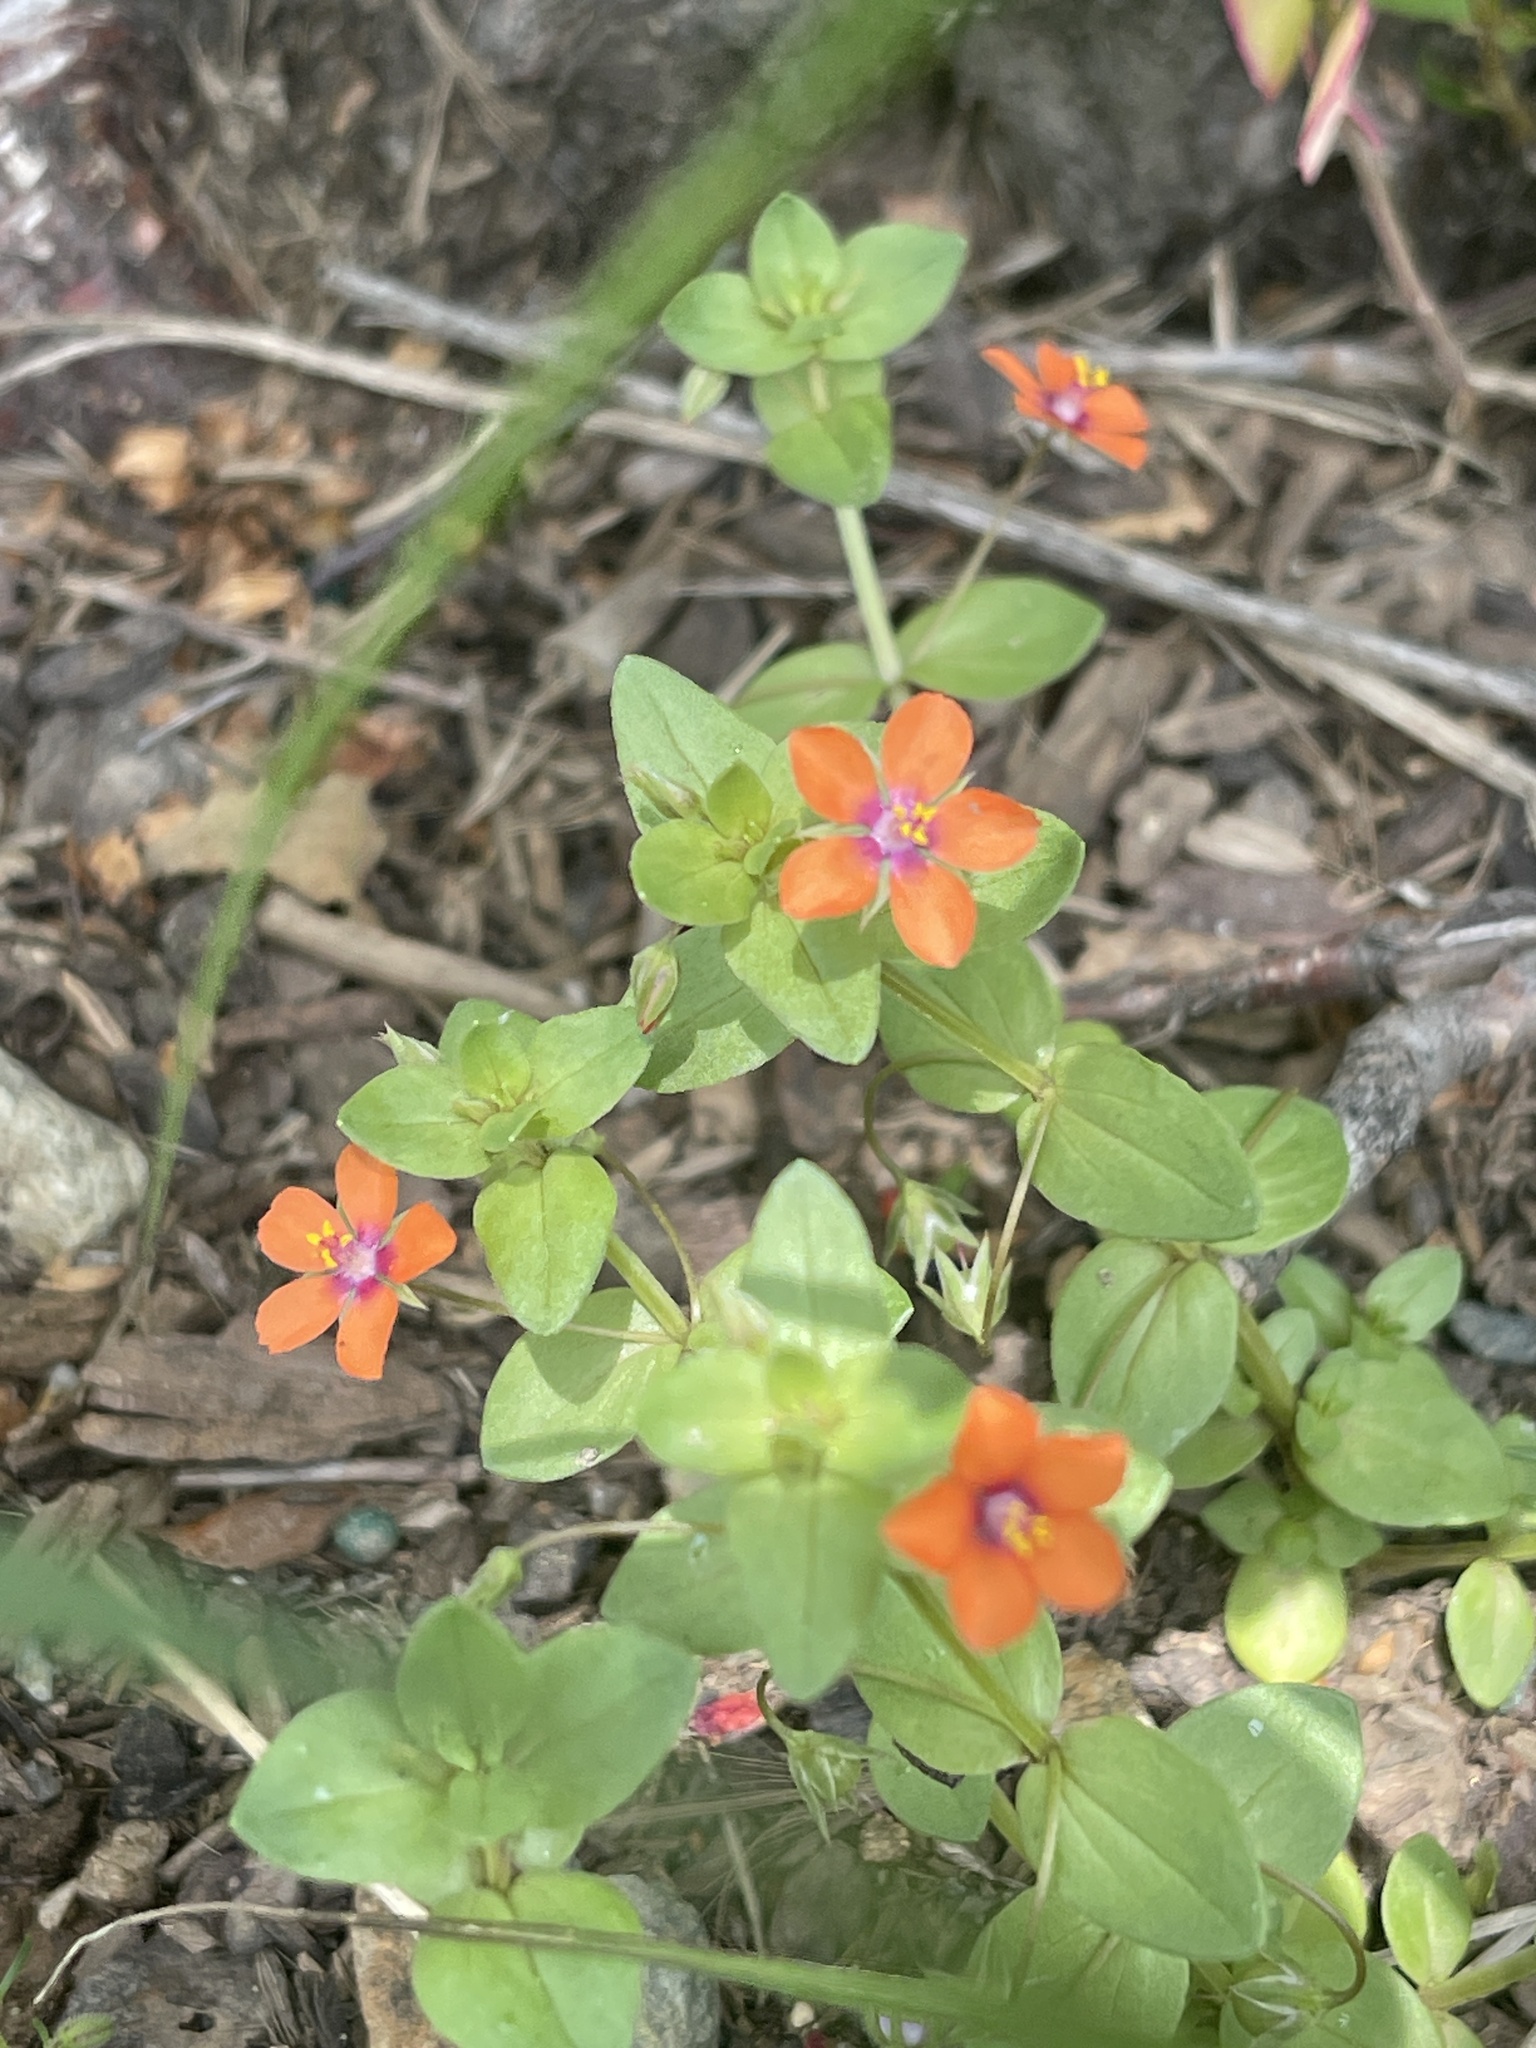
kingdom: Plantae
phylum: Tracheophyta
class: Magnoliopsida
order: Ericales
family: Primulaceae
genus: Lysimachia
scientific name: Lysimachia arvensis
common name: Scarlet pimpernel
